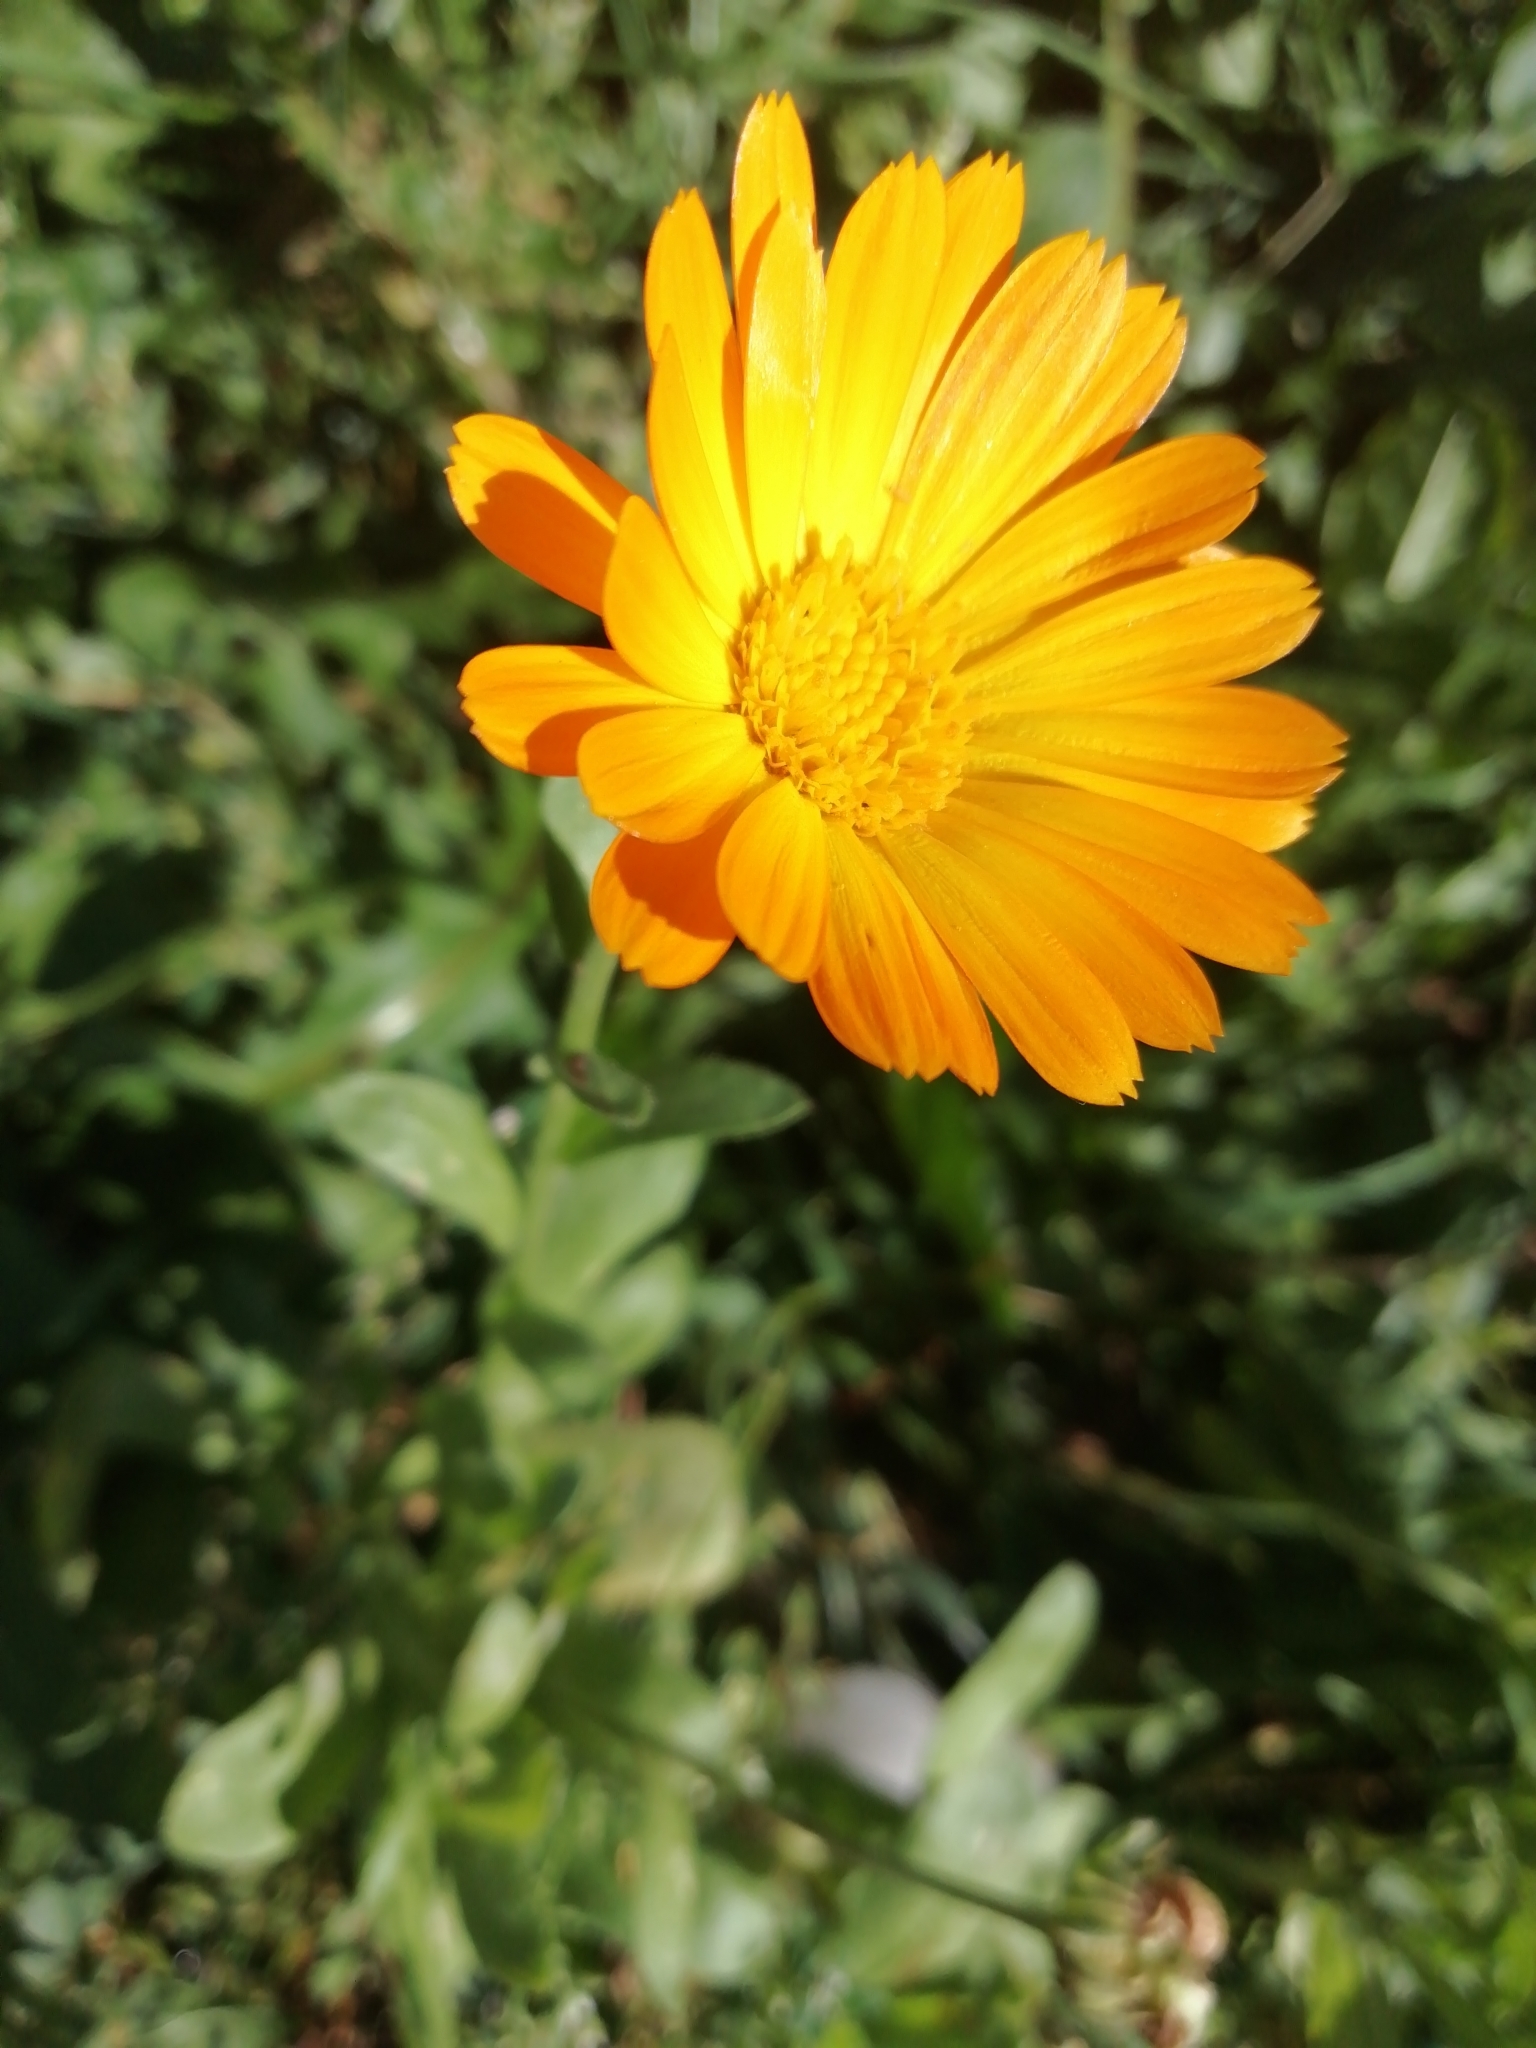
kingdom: Plantae
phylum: Tracheophyta
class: Magnoliopsida
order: Asterales
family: Asteraceae
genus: Calendula
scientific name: Calendula officinalis
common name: Pot marigold
